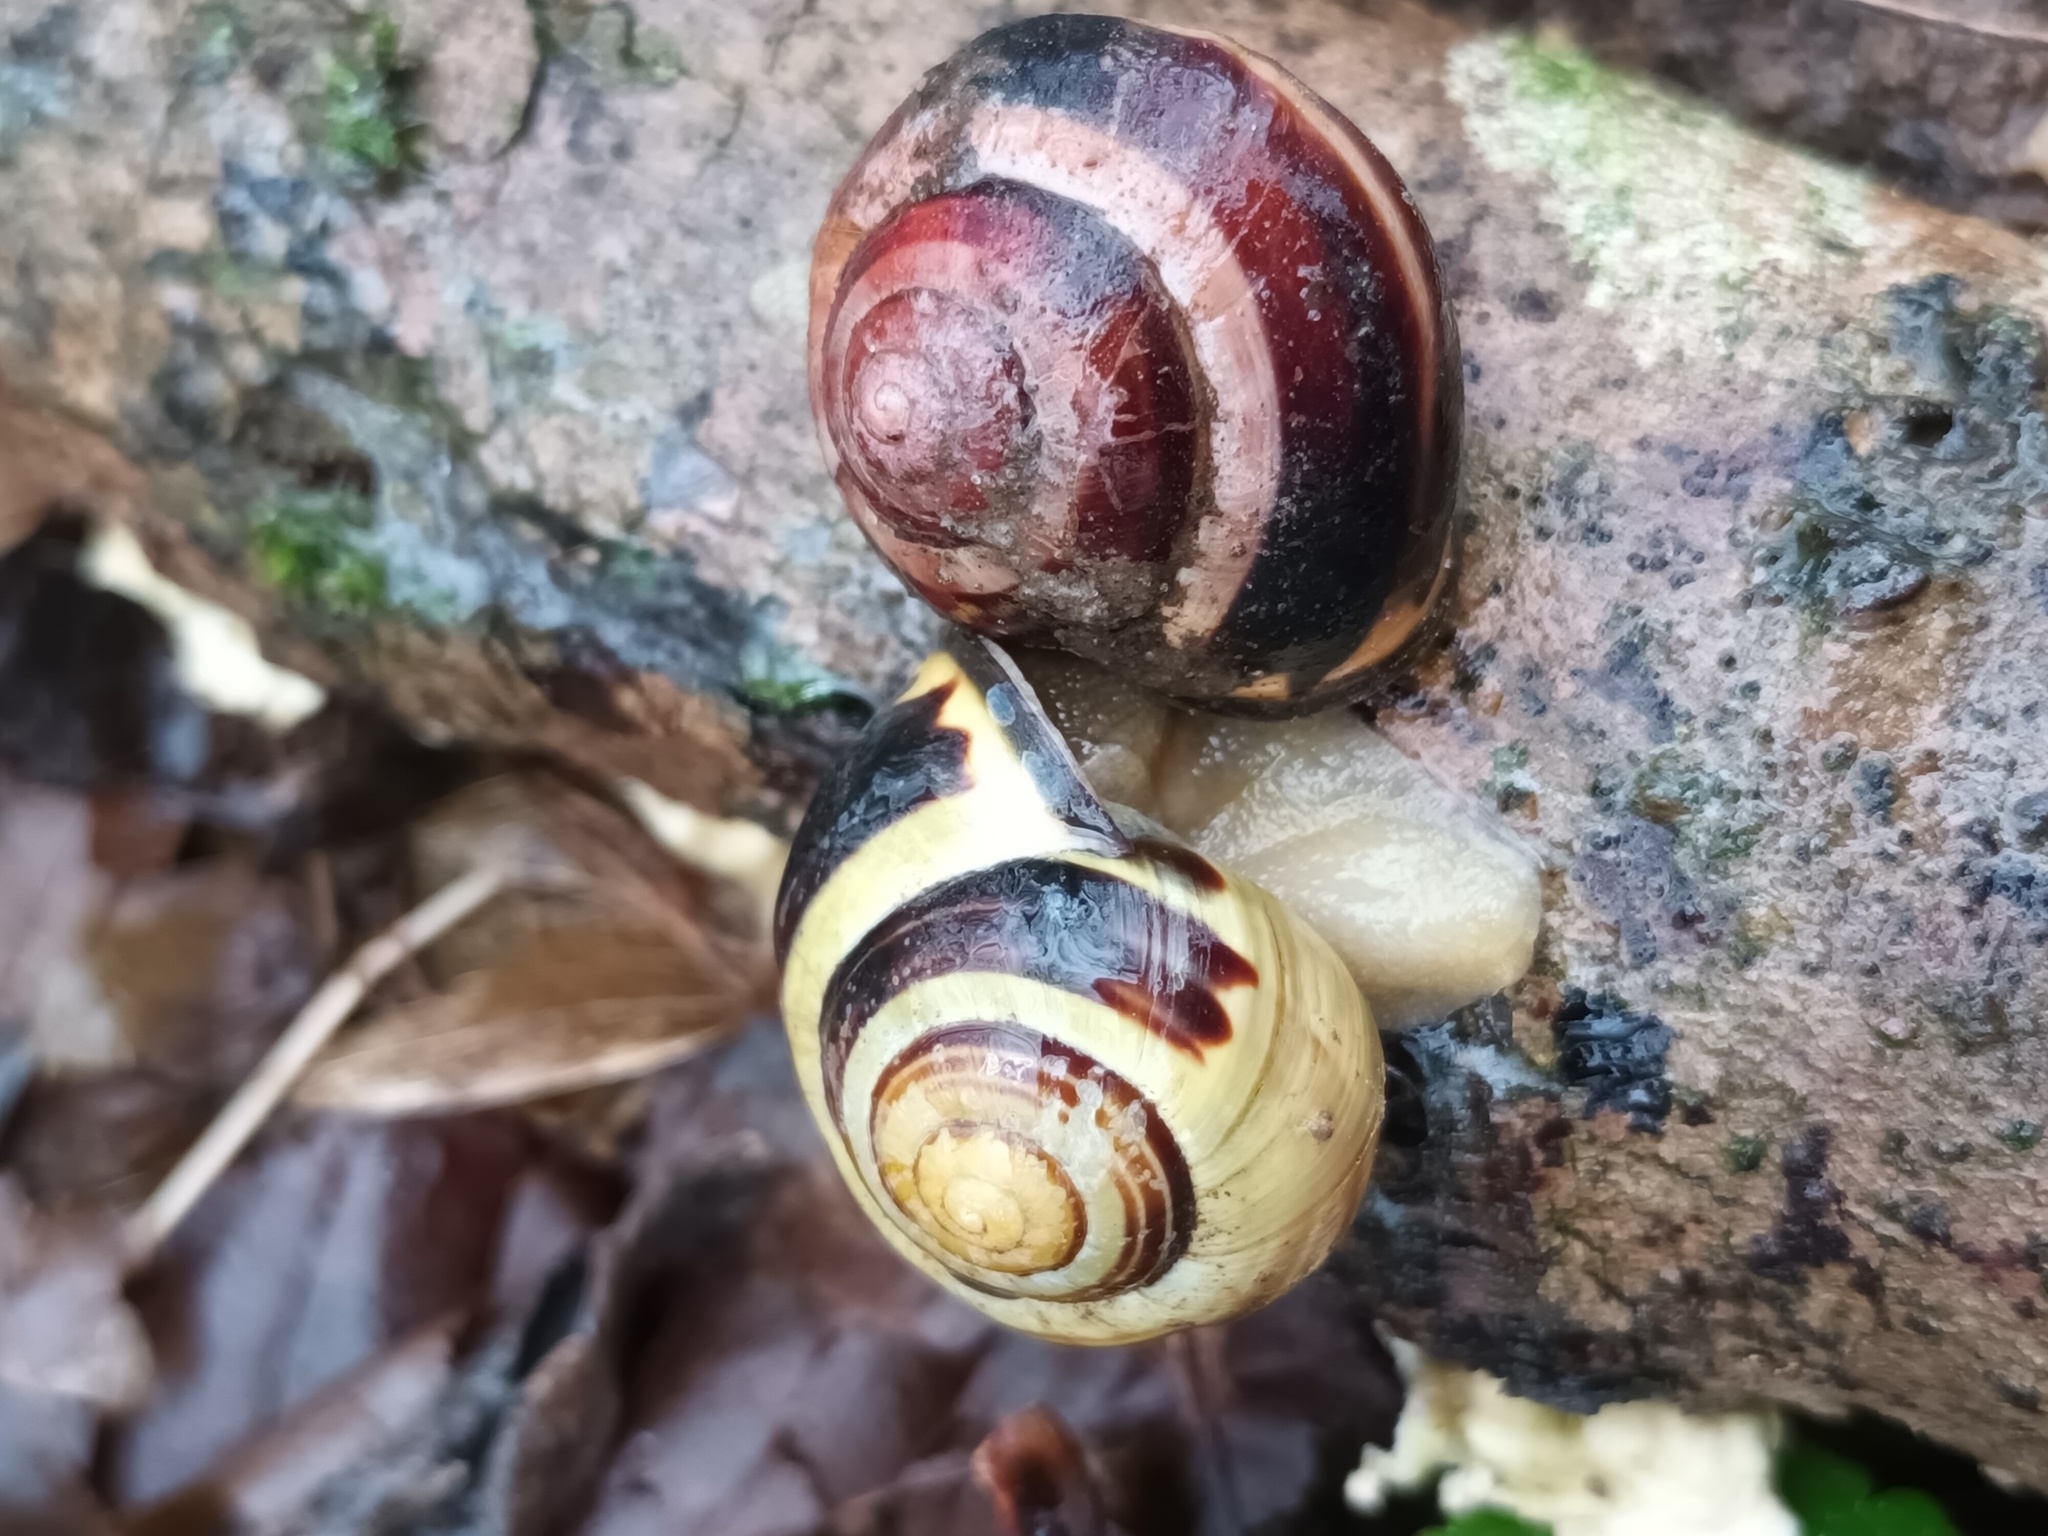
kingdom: Animalia
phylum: Mollusca
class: Gastropoda
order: Stylommatophora
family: Helicidae
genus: Cepaea
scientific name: Cepaea nemoralis
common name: Grovesnail
